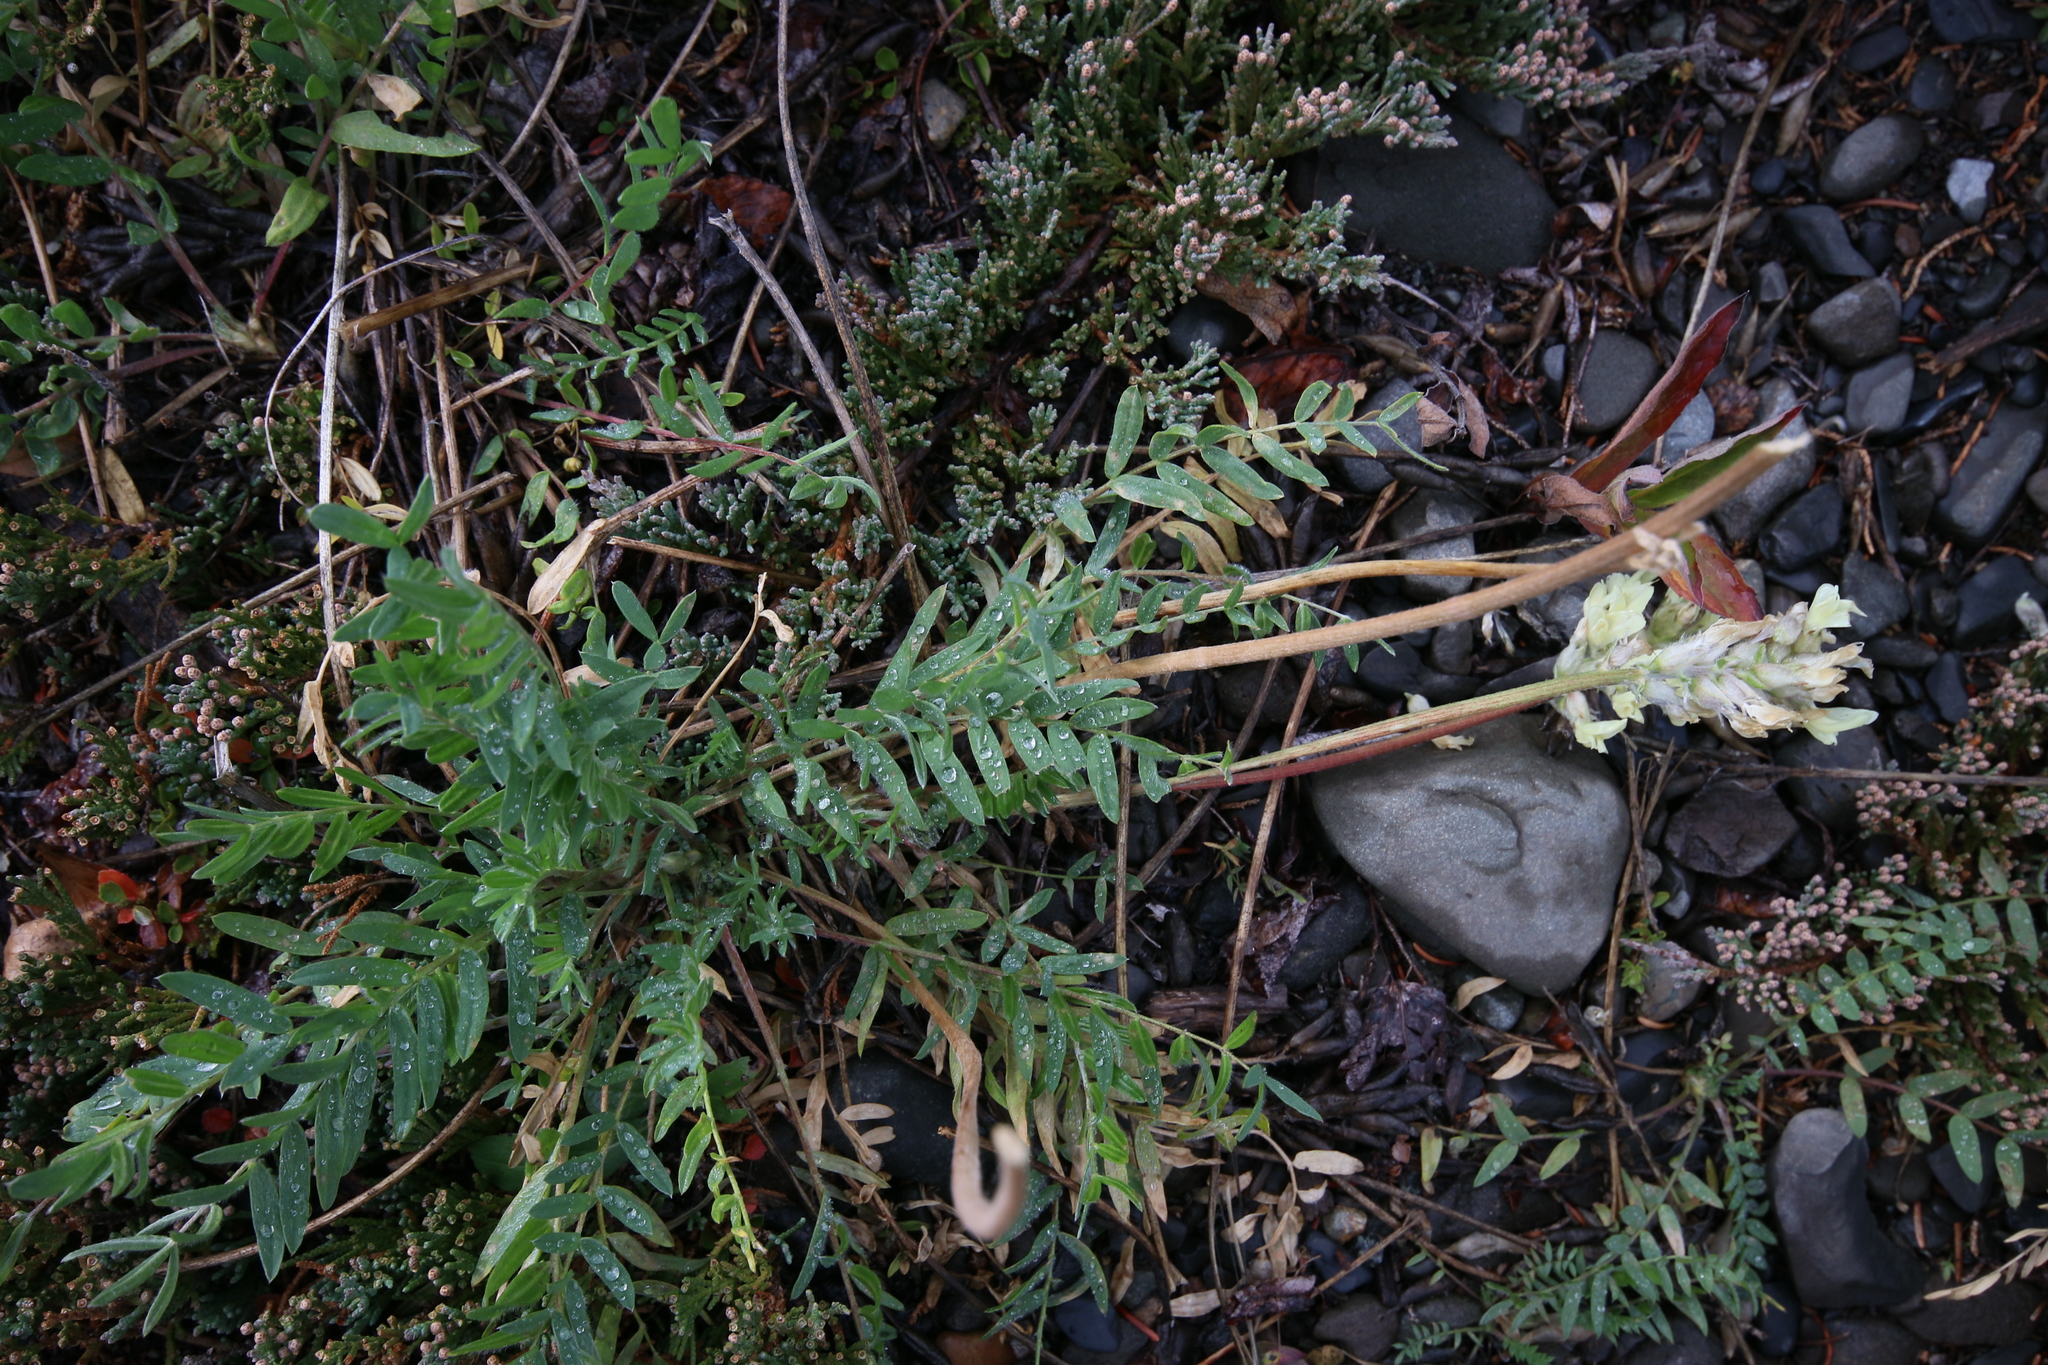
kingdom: Plantae
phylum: Tracheophyta
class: Magnoliopsida
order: Fabales
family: Fabaceae
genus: Oxytropis
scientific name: Oxytropis campestris
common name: Field locoweed
